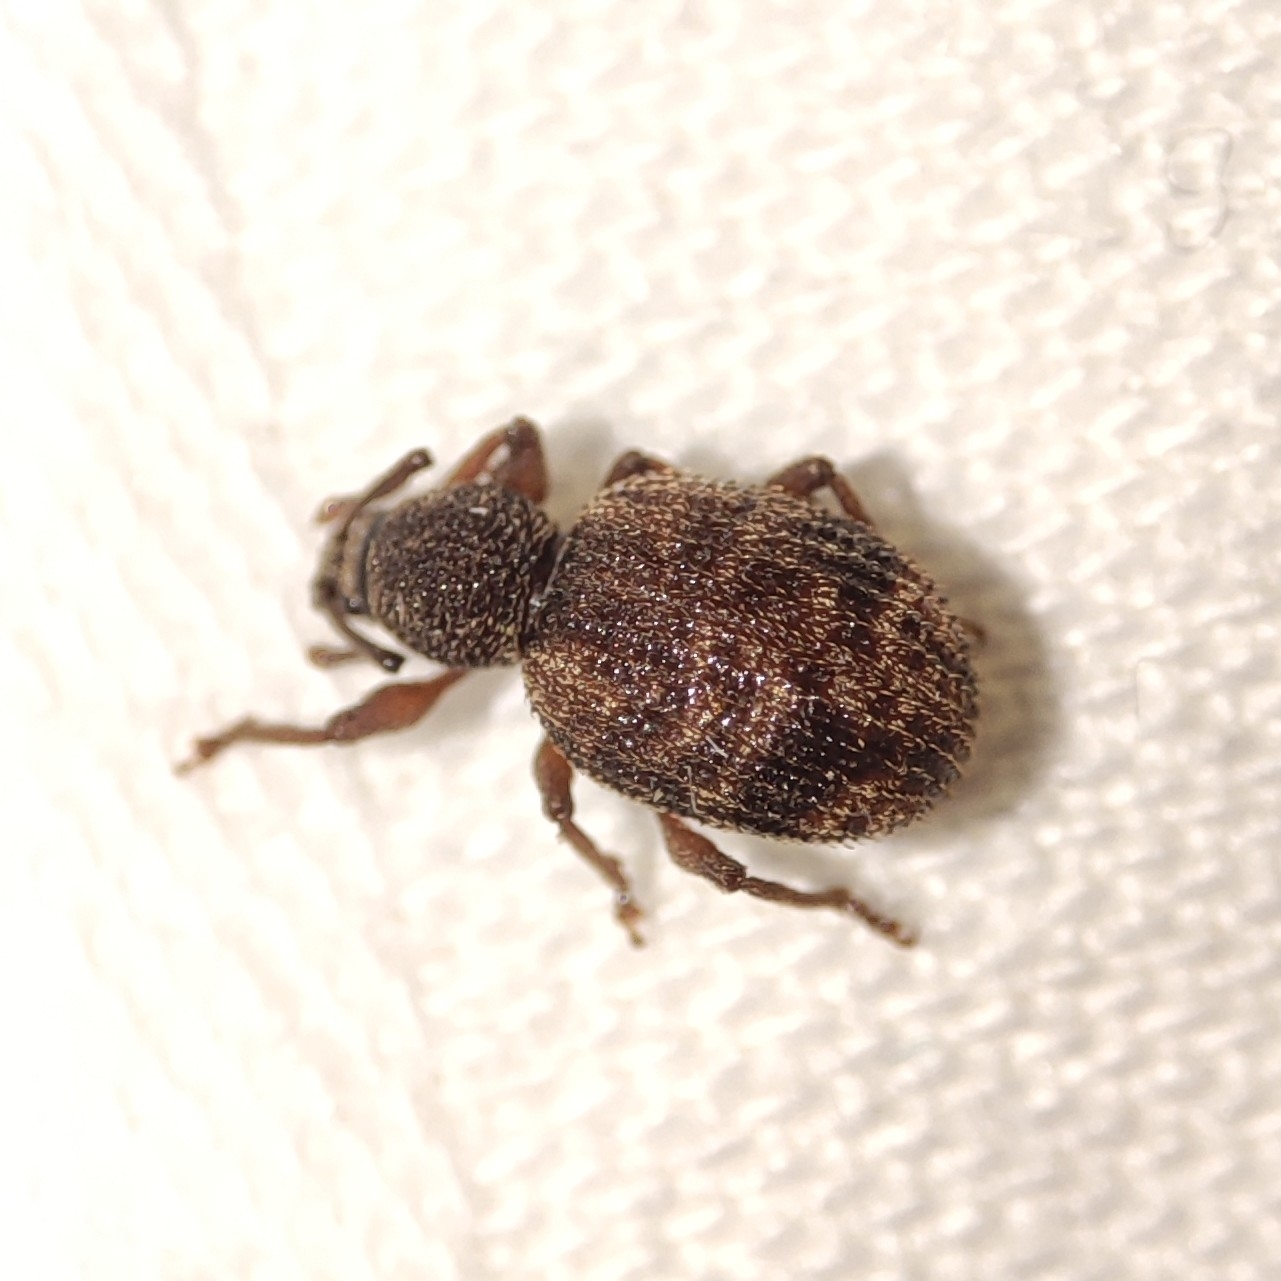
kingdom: Animalia
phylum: Arthropoda
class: Insecta
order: Coleoptera
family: Curculionidae
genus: Otiorhynchus
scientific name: Otiorhynchus crataegi
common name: Privet weevil
